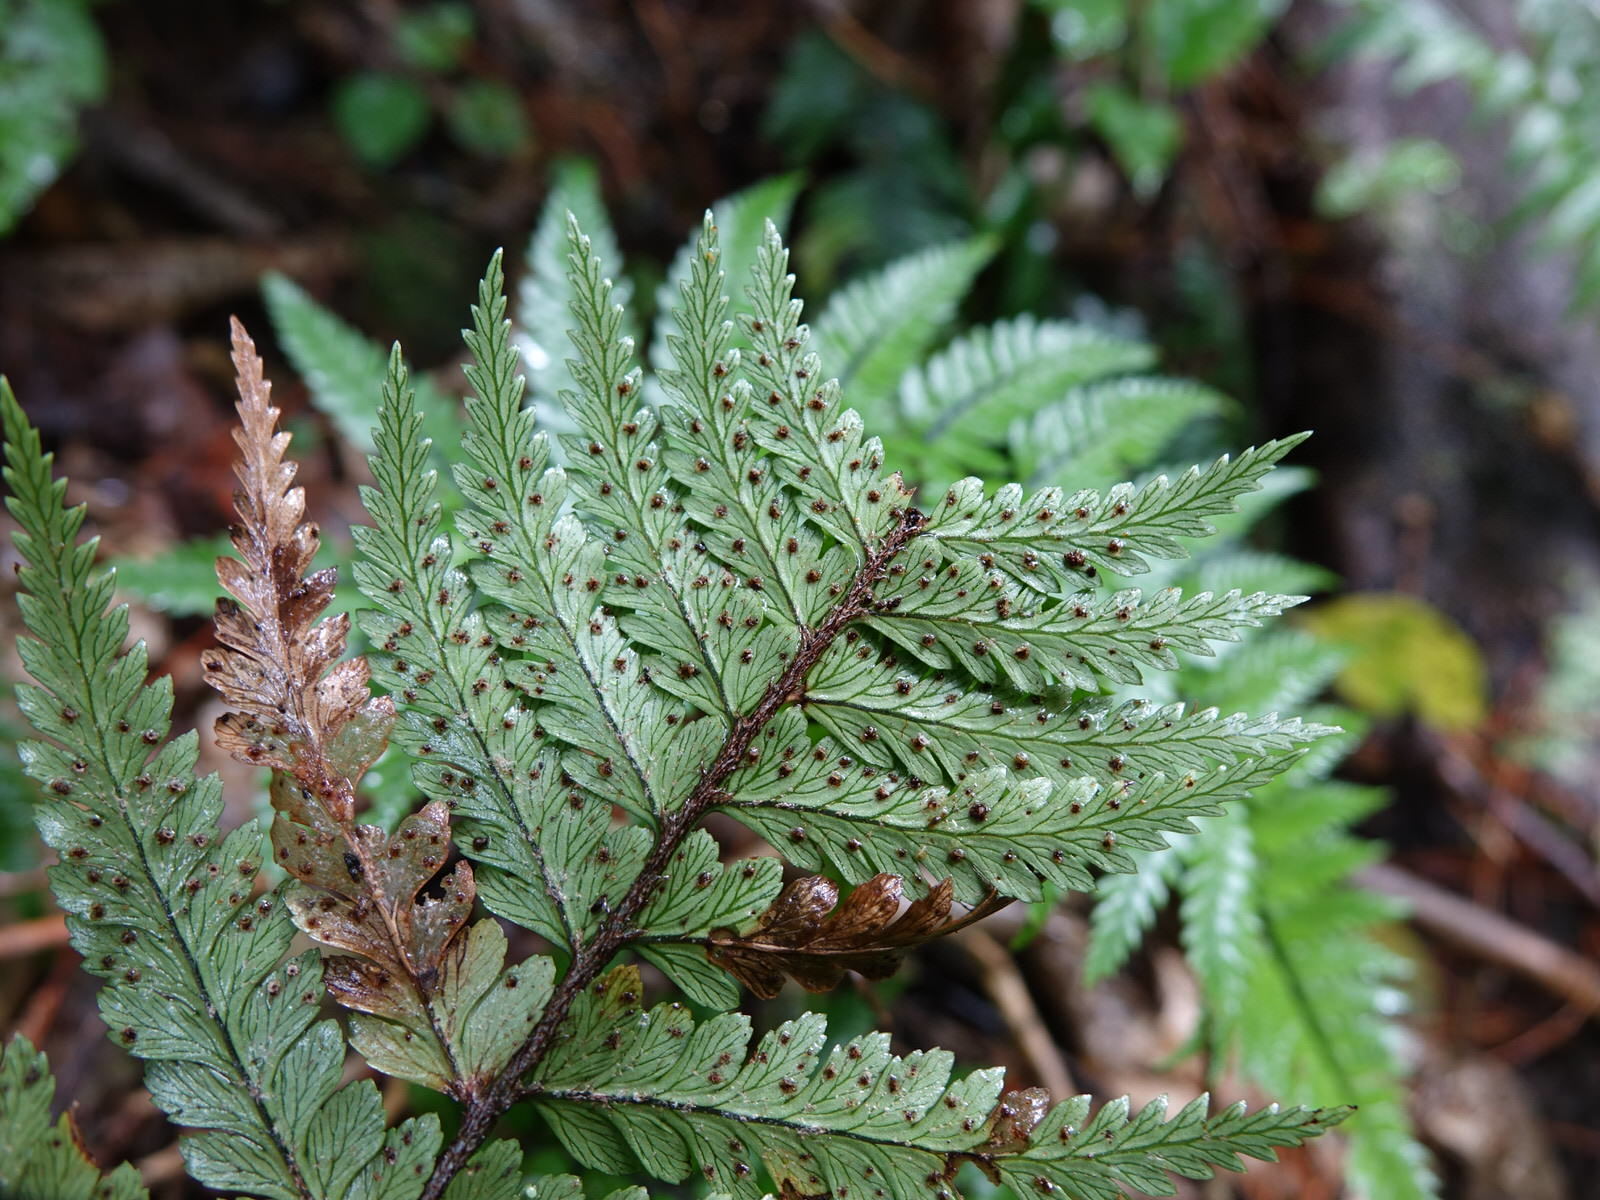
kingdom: Plantae
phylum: Tracheophyta
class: Polypodiopsida
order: Polypodiales
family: Dryopteridaceae
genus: Polystichum
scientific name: Polystichum neozelandicum
